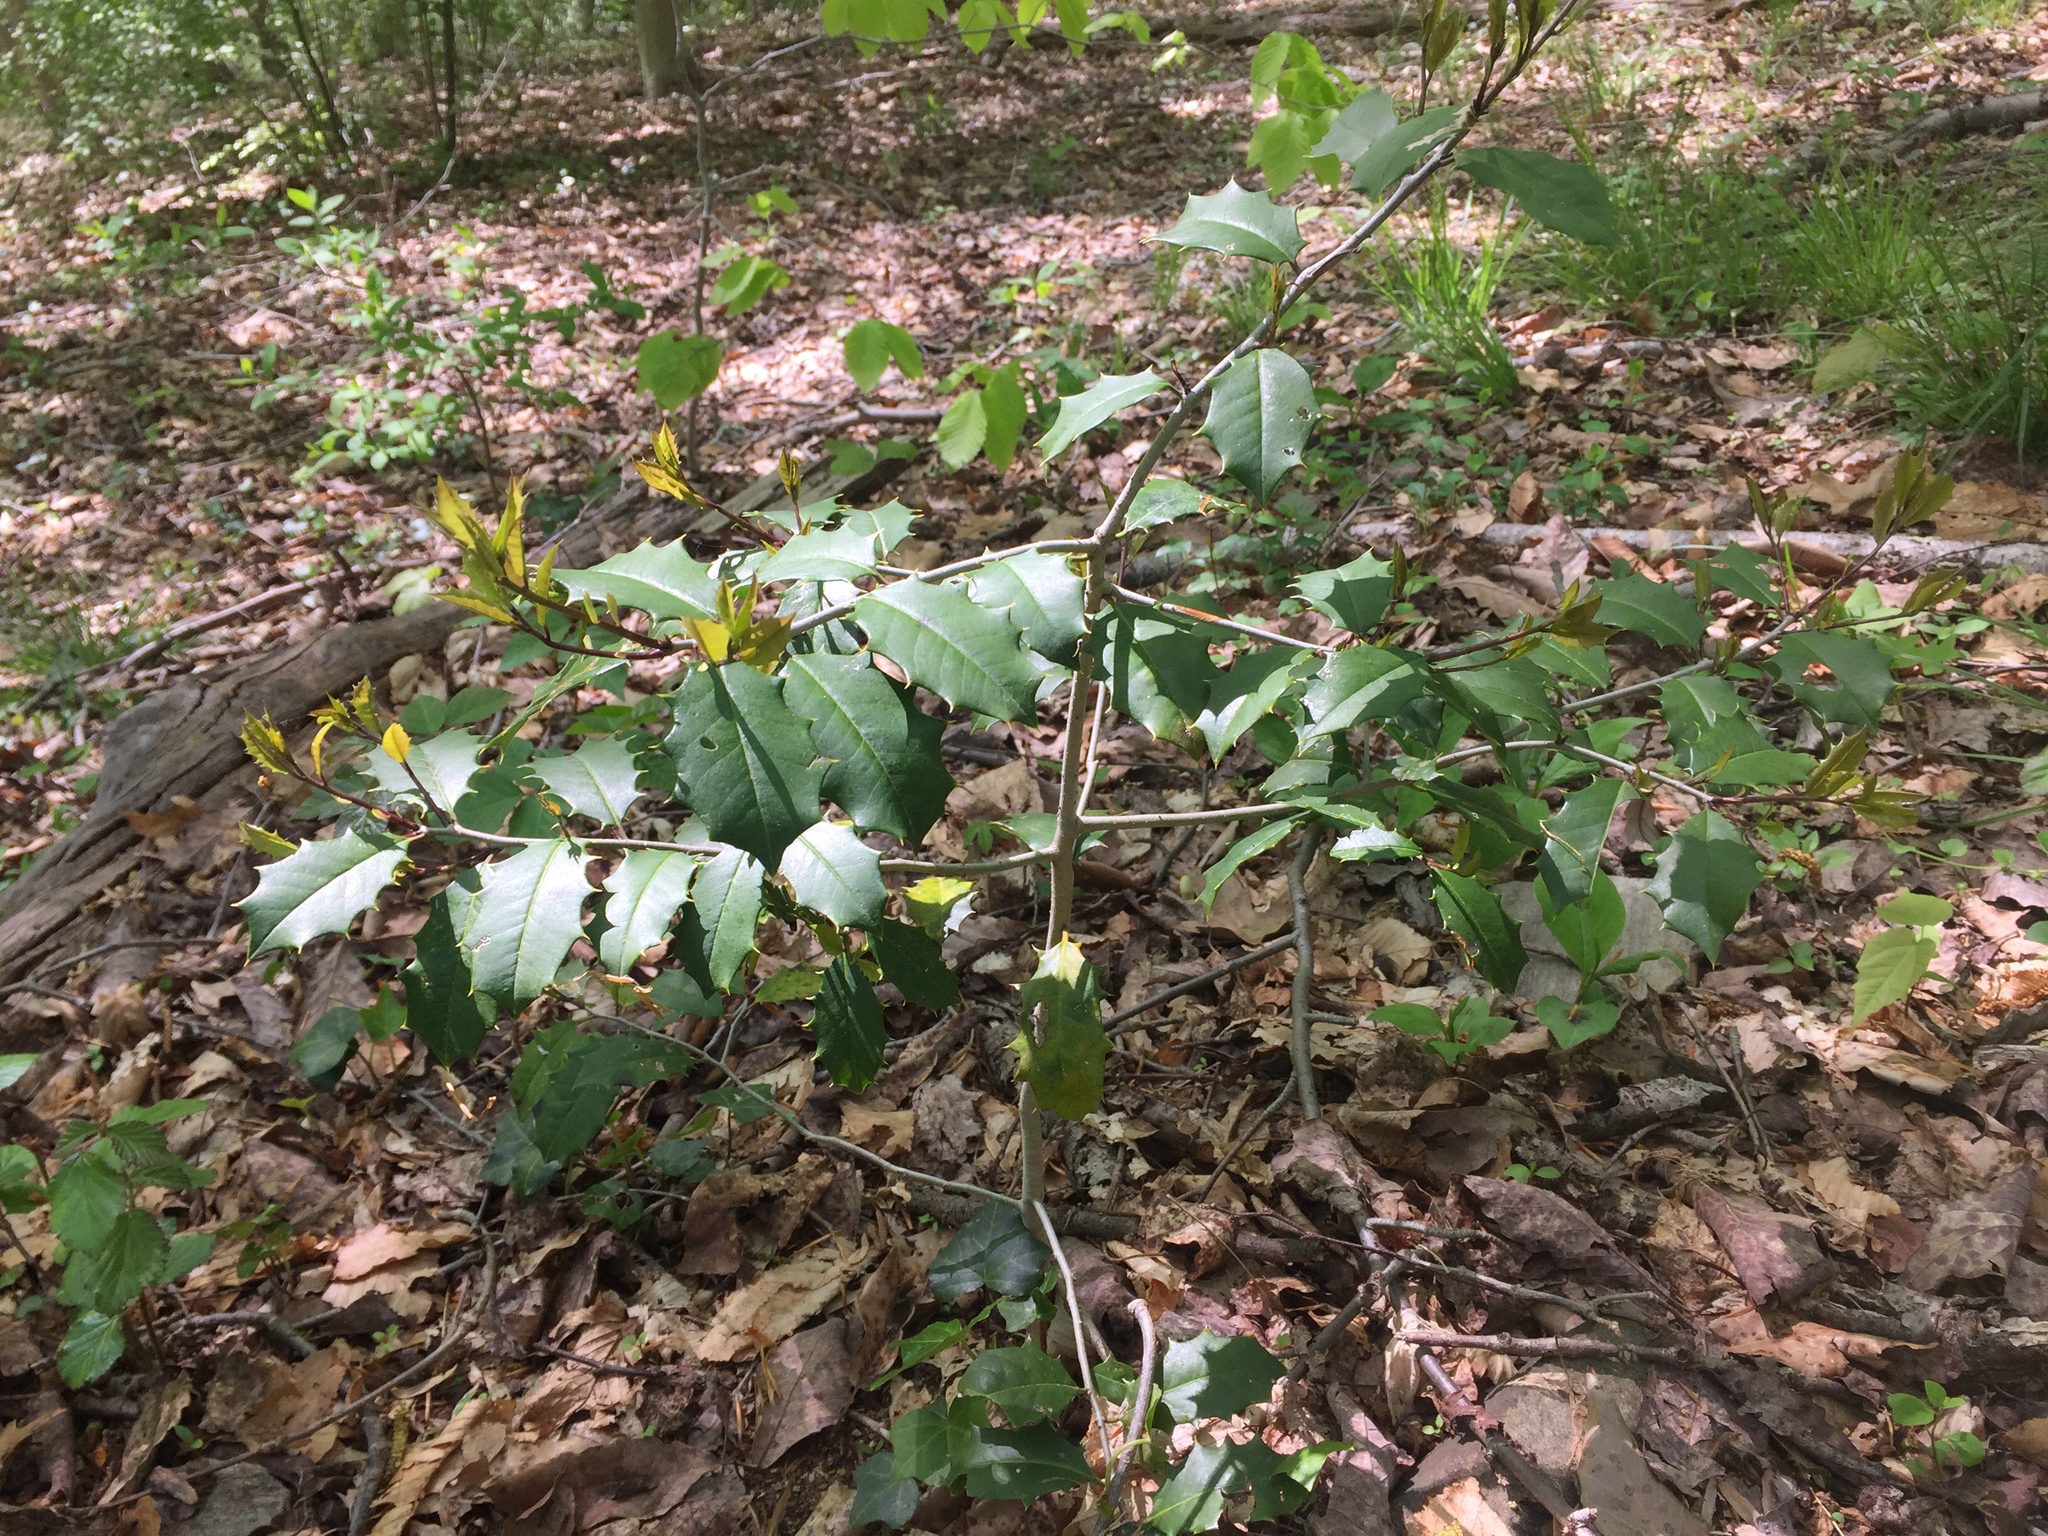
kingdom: Plantae
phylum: Tracheophyta
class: Magnoliopsida
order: Aquifoliales
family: Aquifoliaceae
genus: Ilex
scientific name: Ilex opaca
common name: American holly
